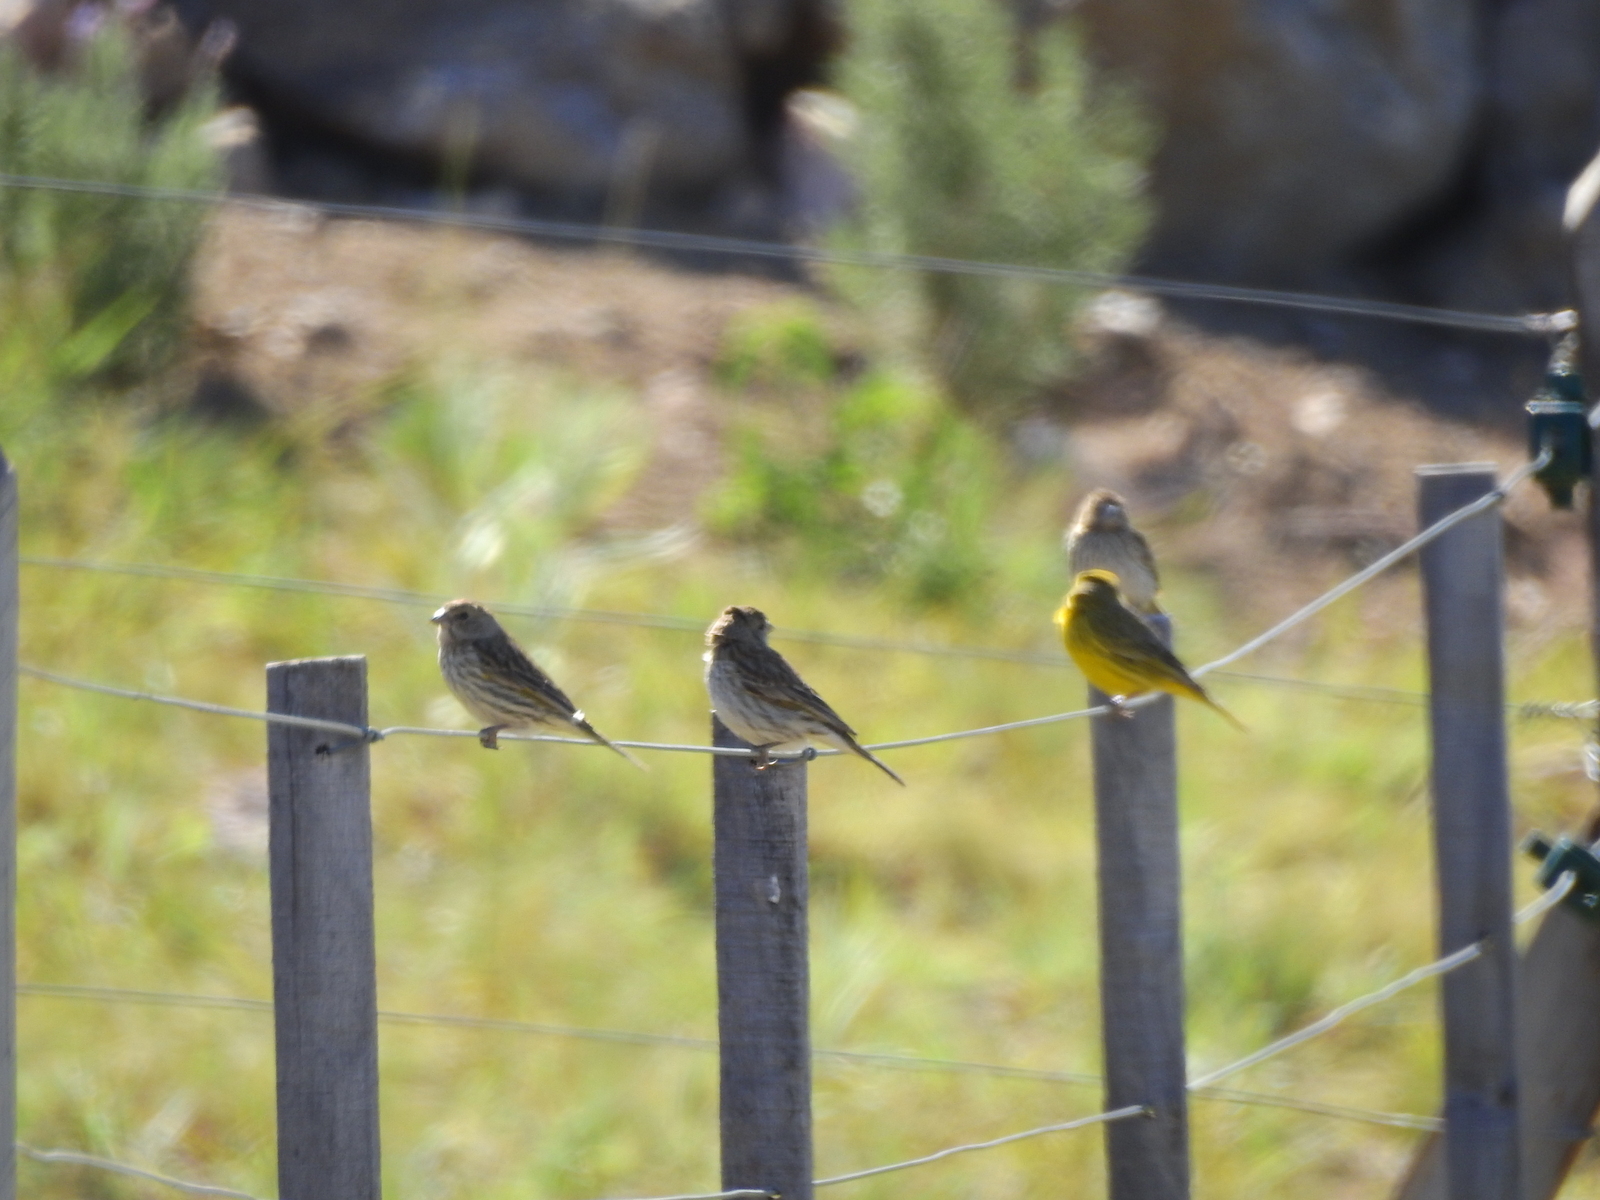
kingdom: Animalia
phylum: Chordata
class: Aves
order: Passeriformes
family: Thraupidae
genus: Sicalis
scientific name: Sicalis flaveola
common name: Saffron finch
